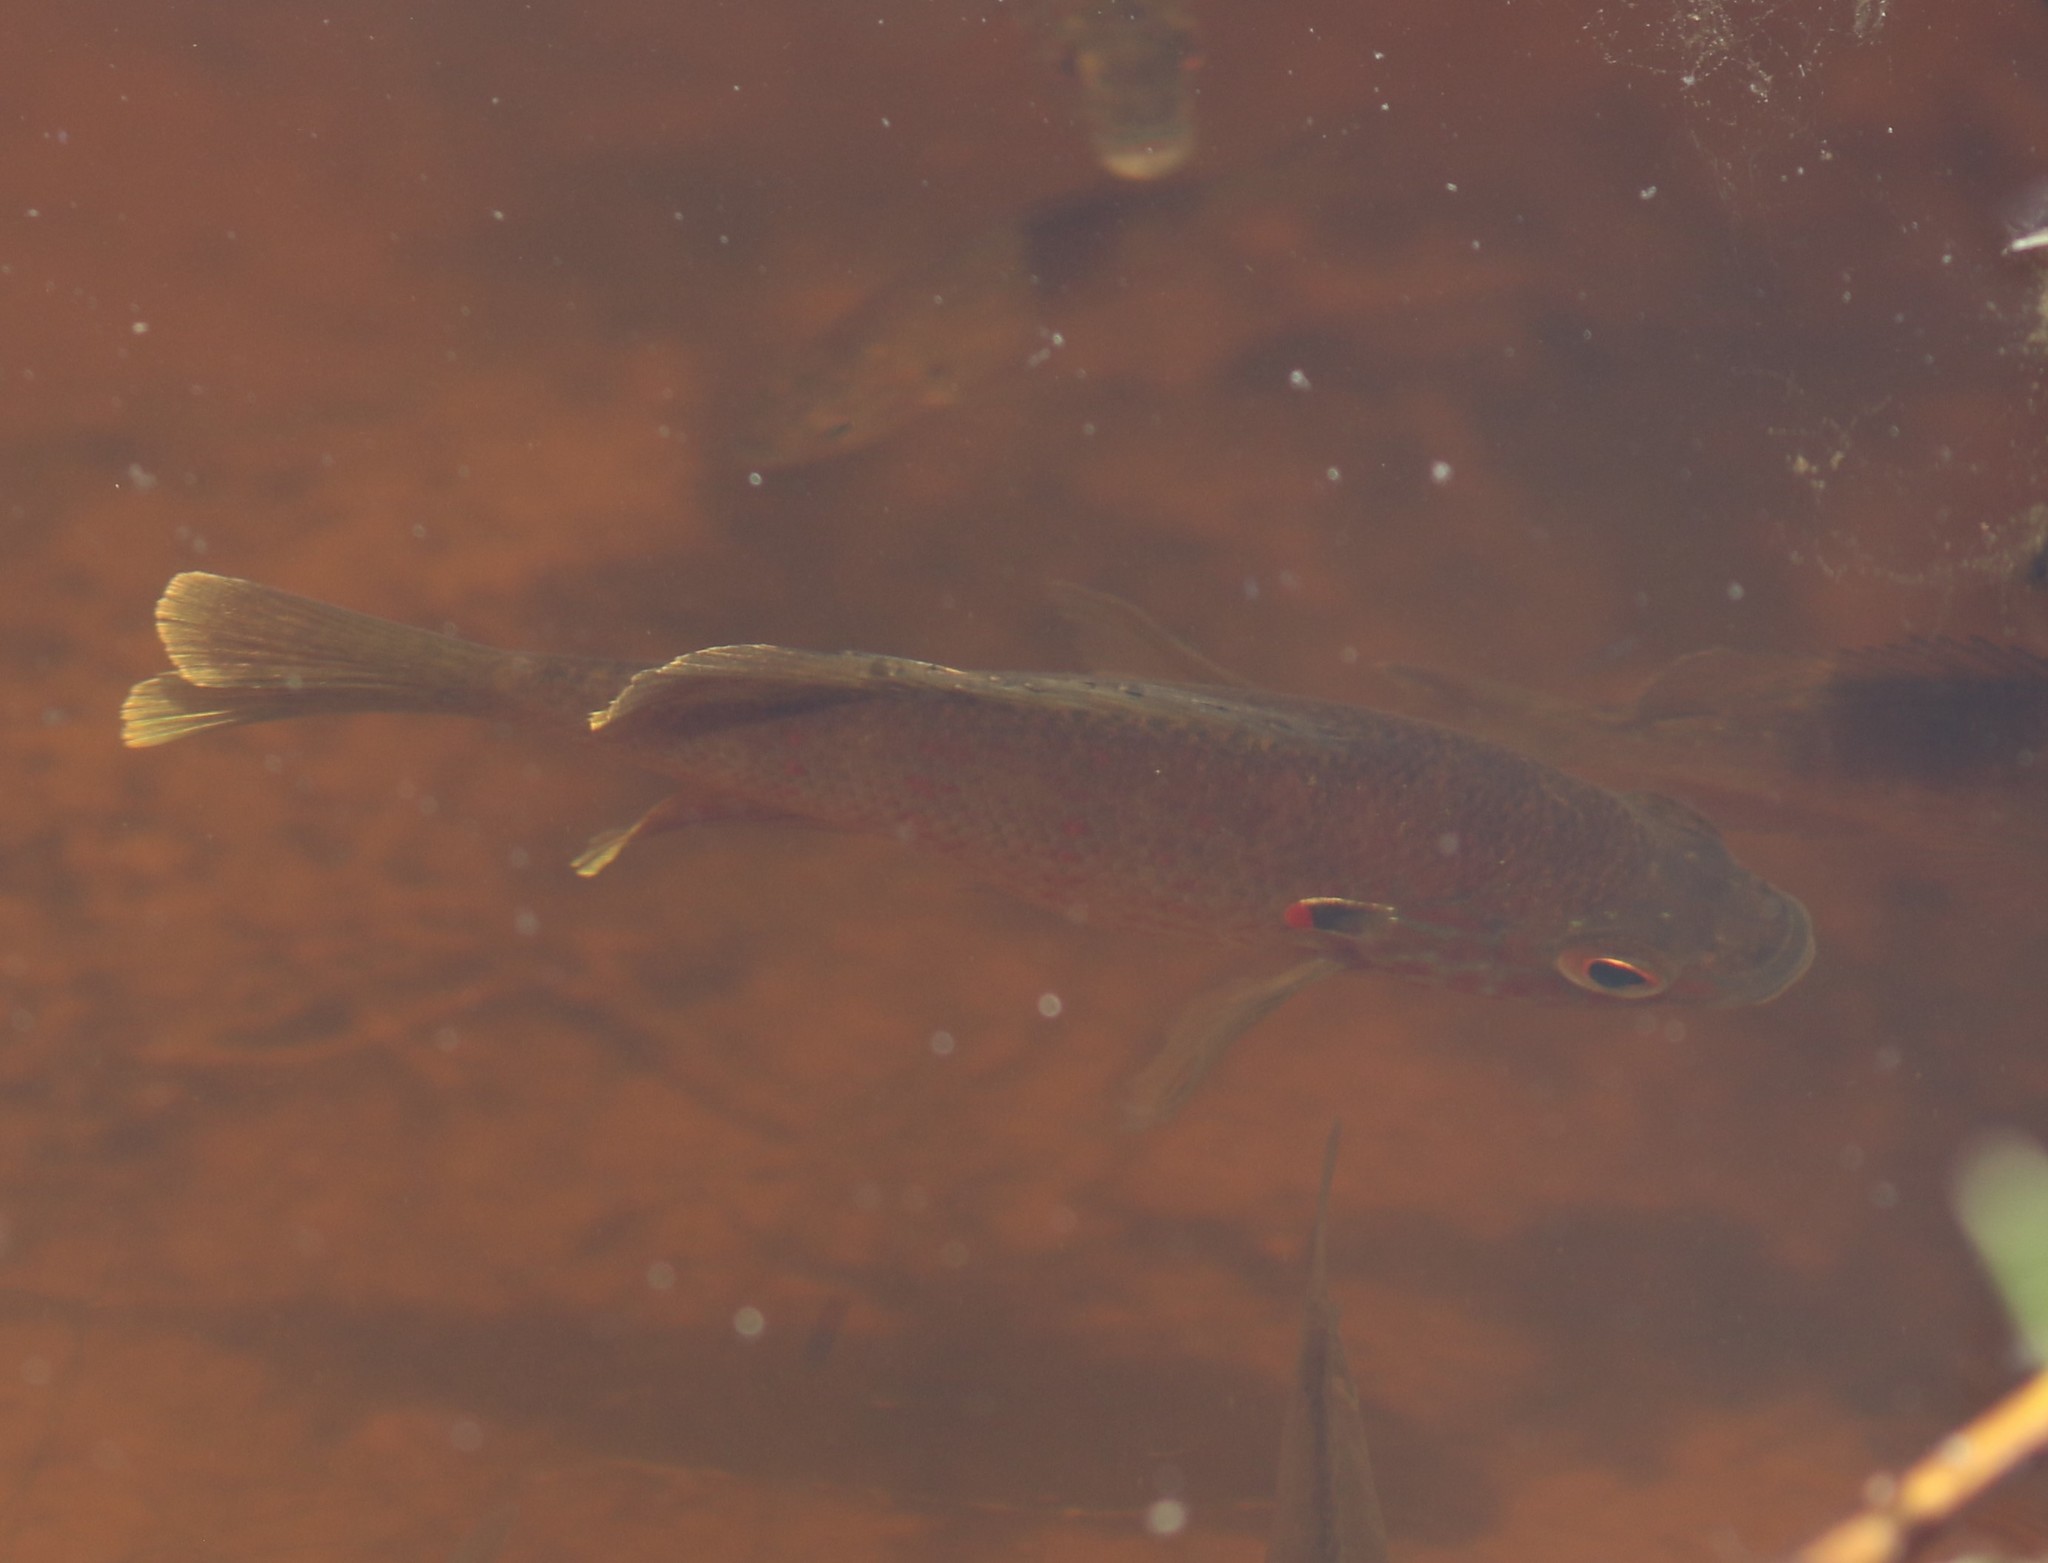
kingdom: Animalia
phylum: Chordata
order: Perciformes
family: Centrarchidae
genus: Lepomis
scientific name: Lepomis gibbosus
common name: Pumpkinseed
